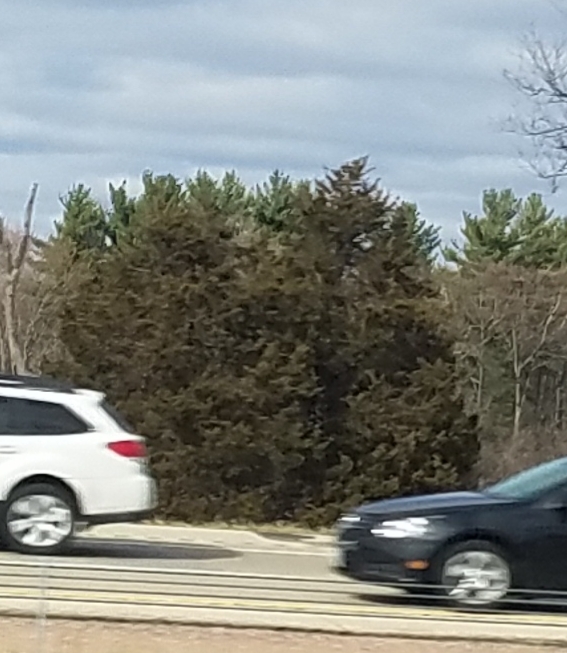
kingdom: Plantae
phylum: Tracheophyta
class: Pinopsida
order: Pinales
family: Cupressaceae
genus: Juniperus
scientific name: Juniperus virginiana
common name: Red juniper
